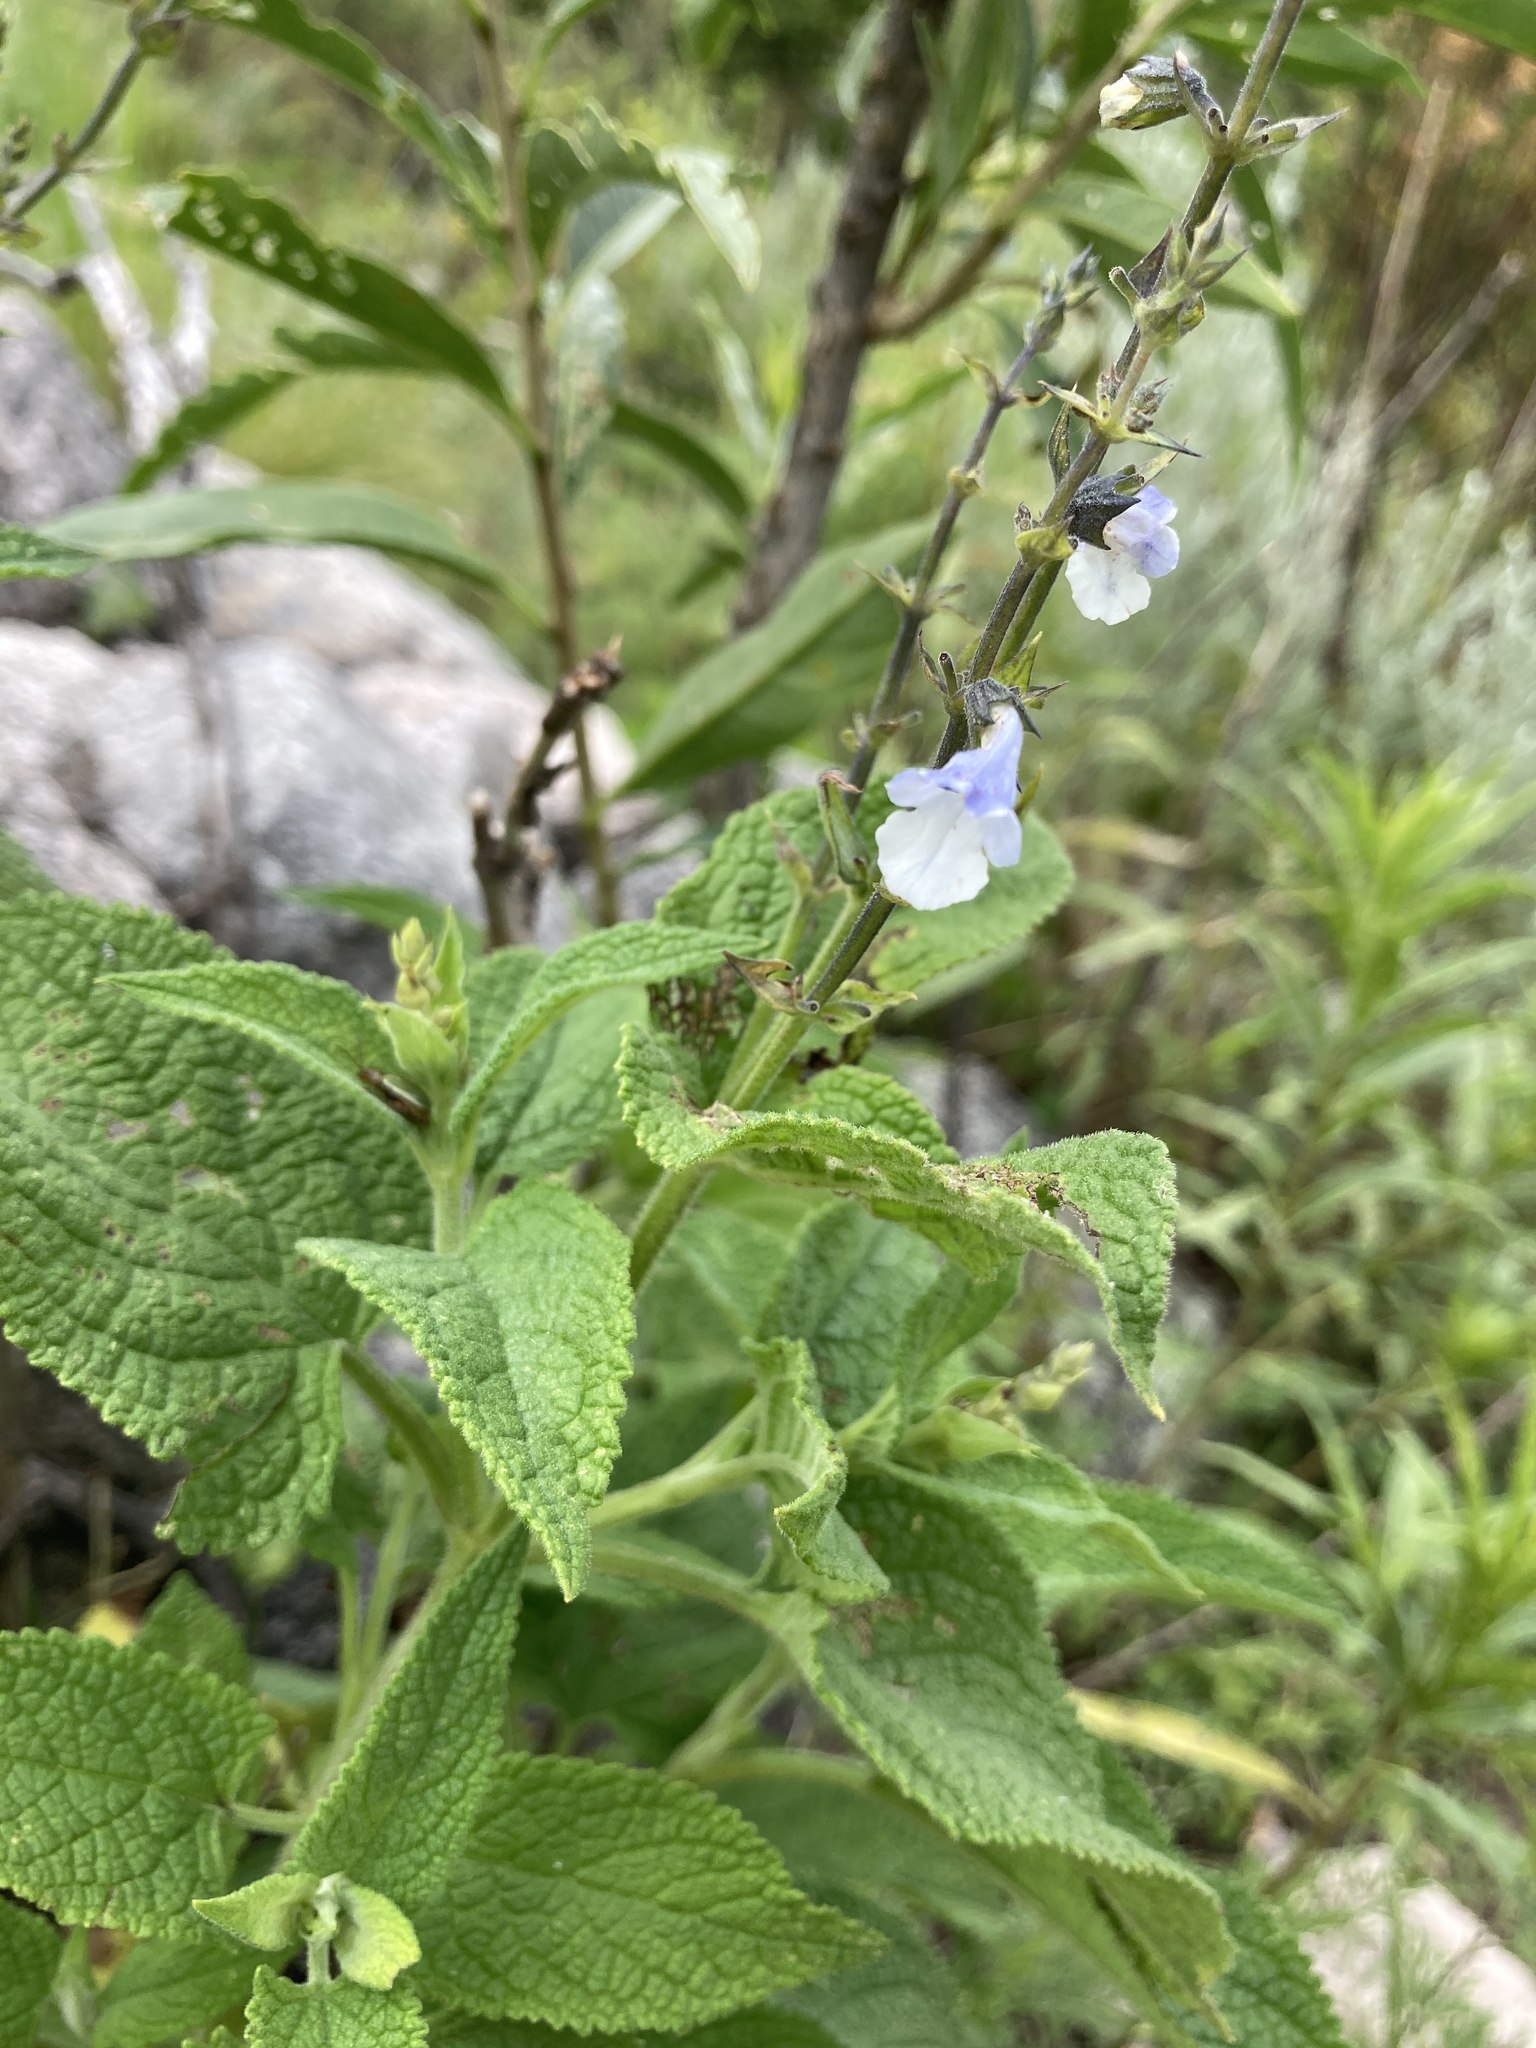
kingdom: Plantae
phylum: Tracheophyta
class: Magnoliopsida
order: Lamiales
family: Lamiaceae
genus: Lepechinia
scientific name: Lepechinia floribunda
